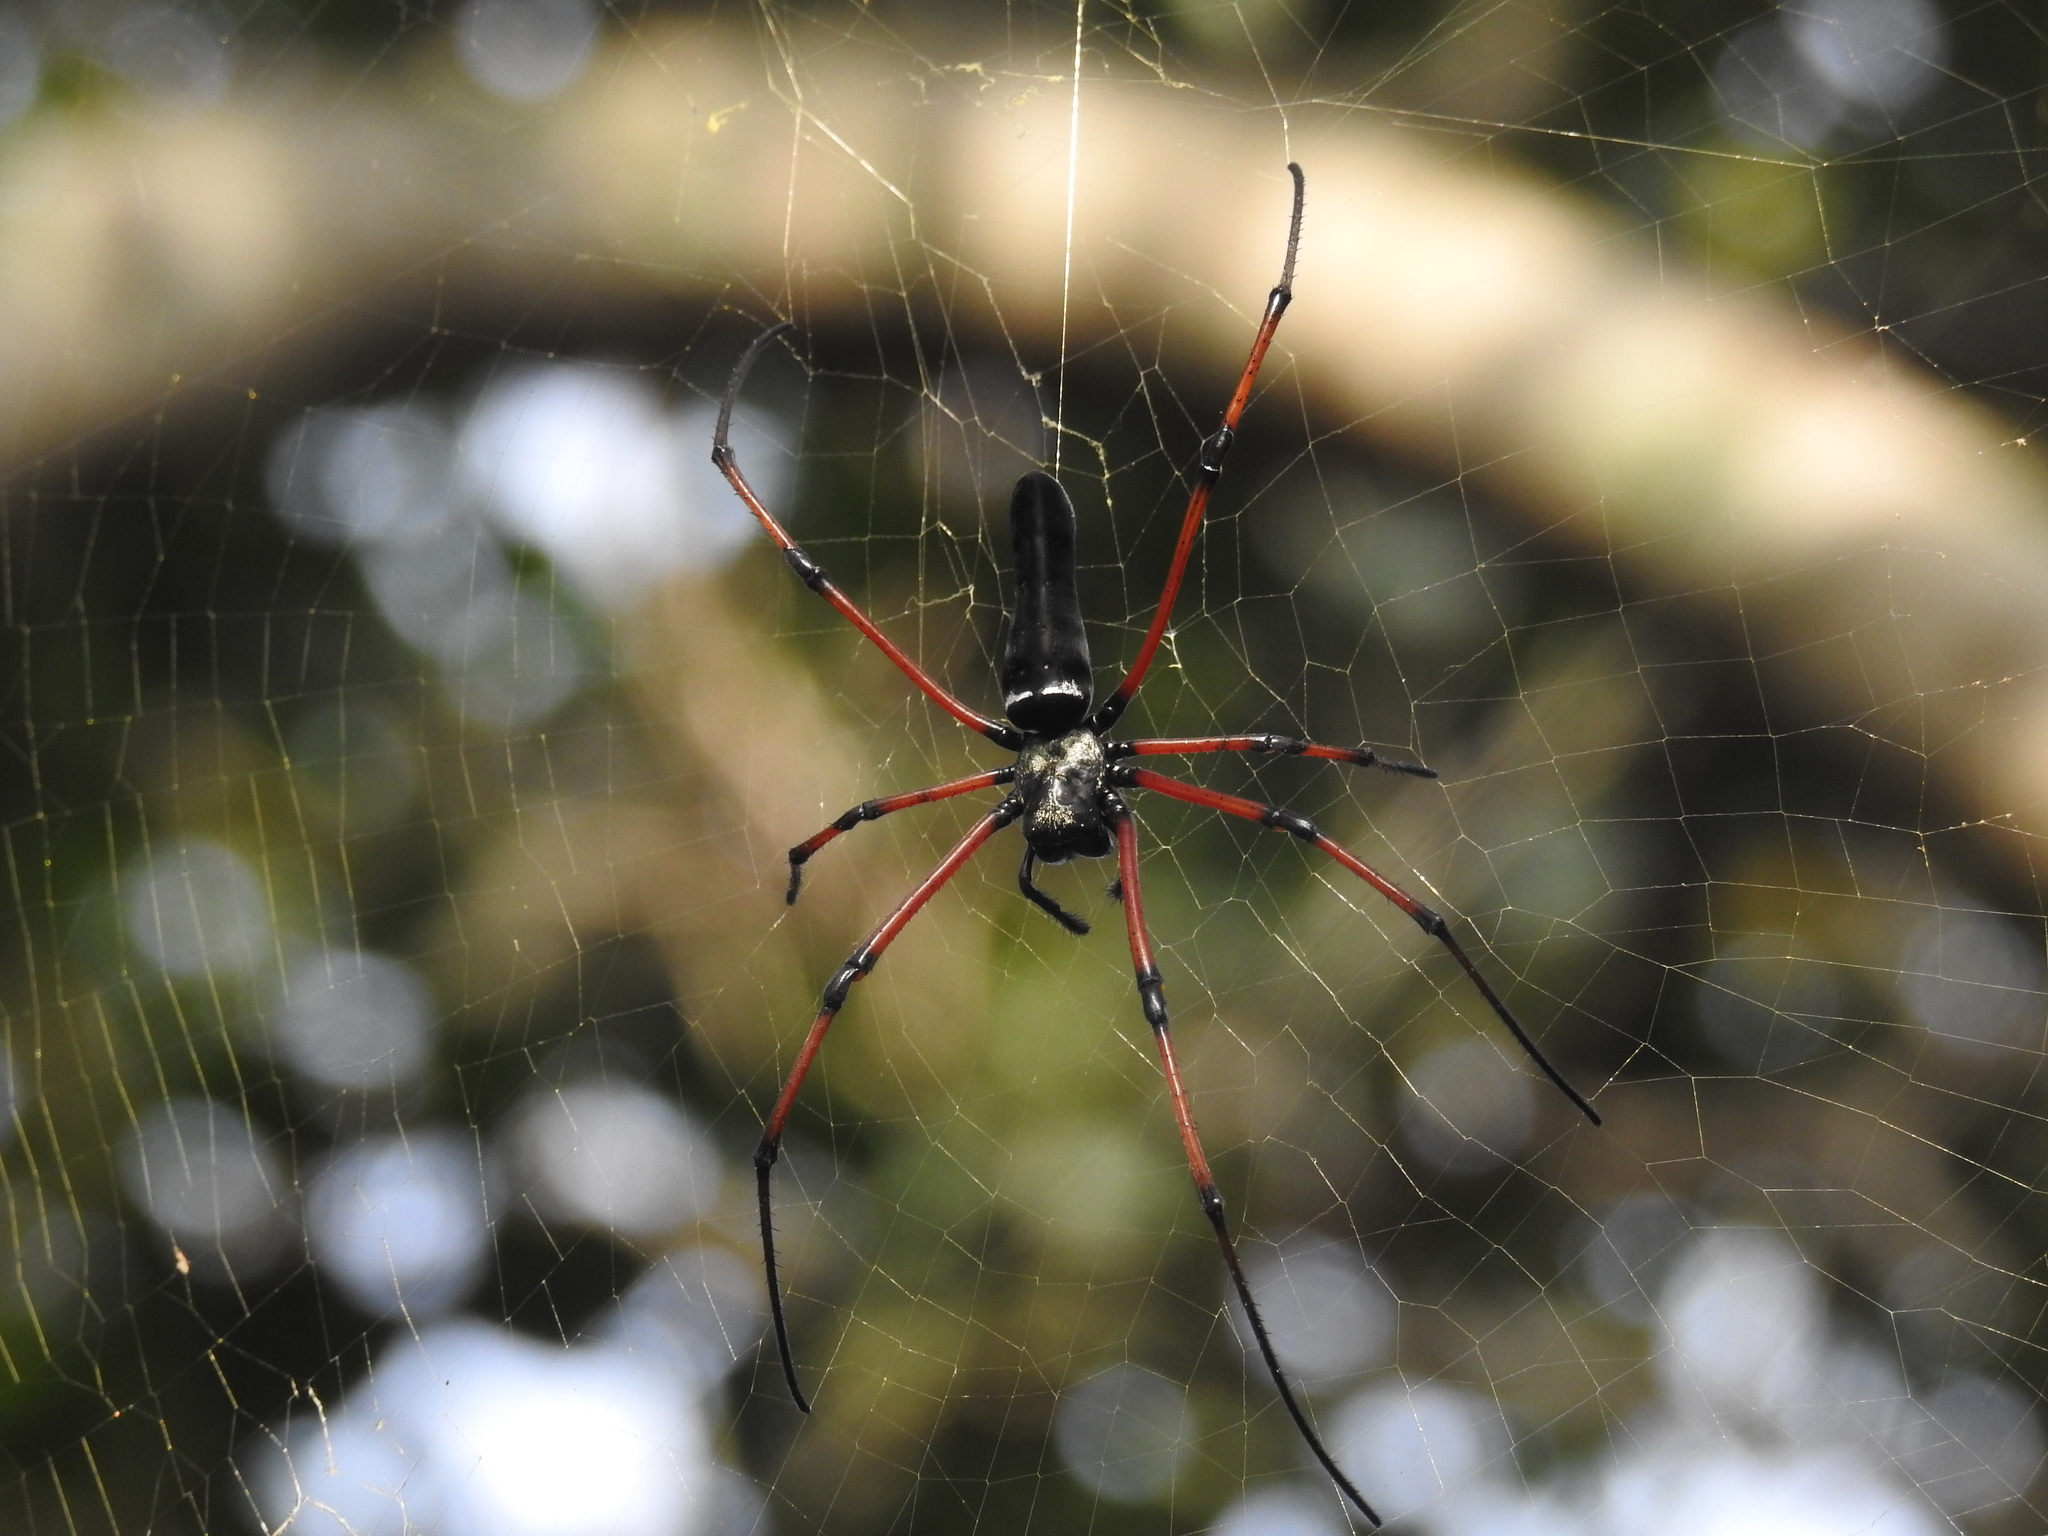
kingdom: Animalia
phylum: Arthropoda
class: Arachnida
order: Araneae
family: Araneidae
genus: Nephila
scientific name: Nephila kuhli
